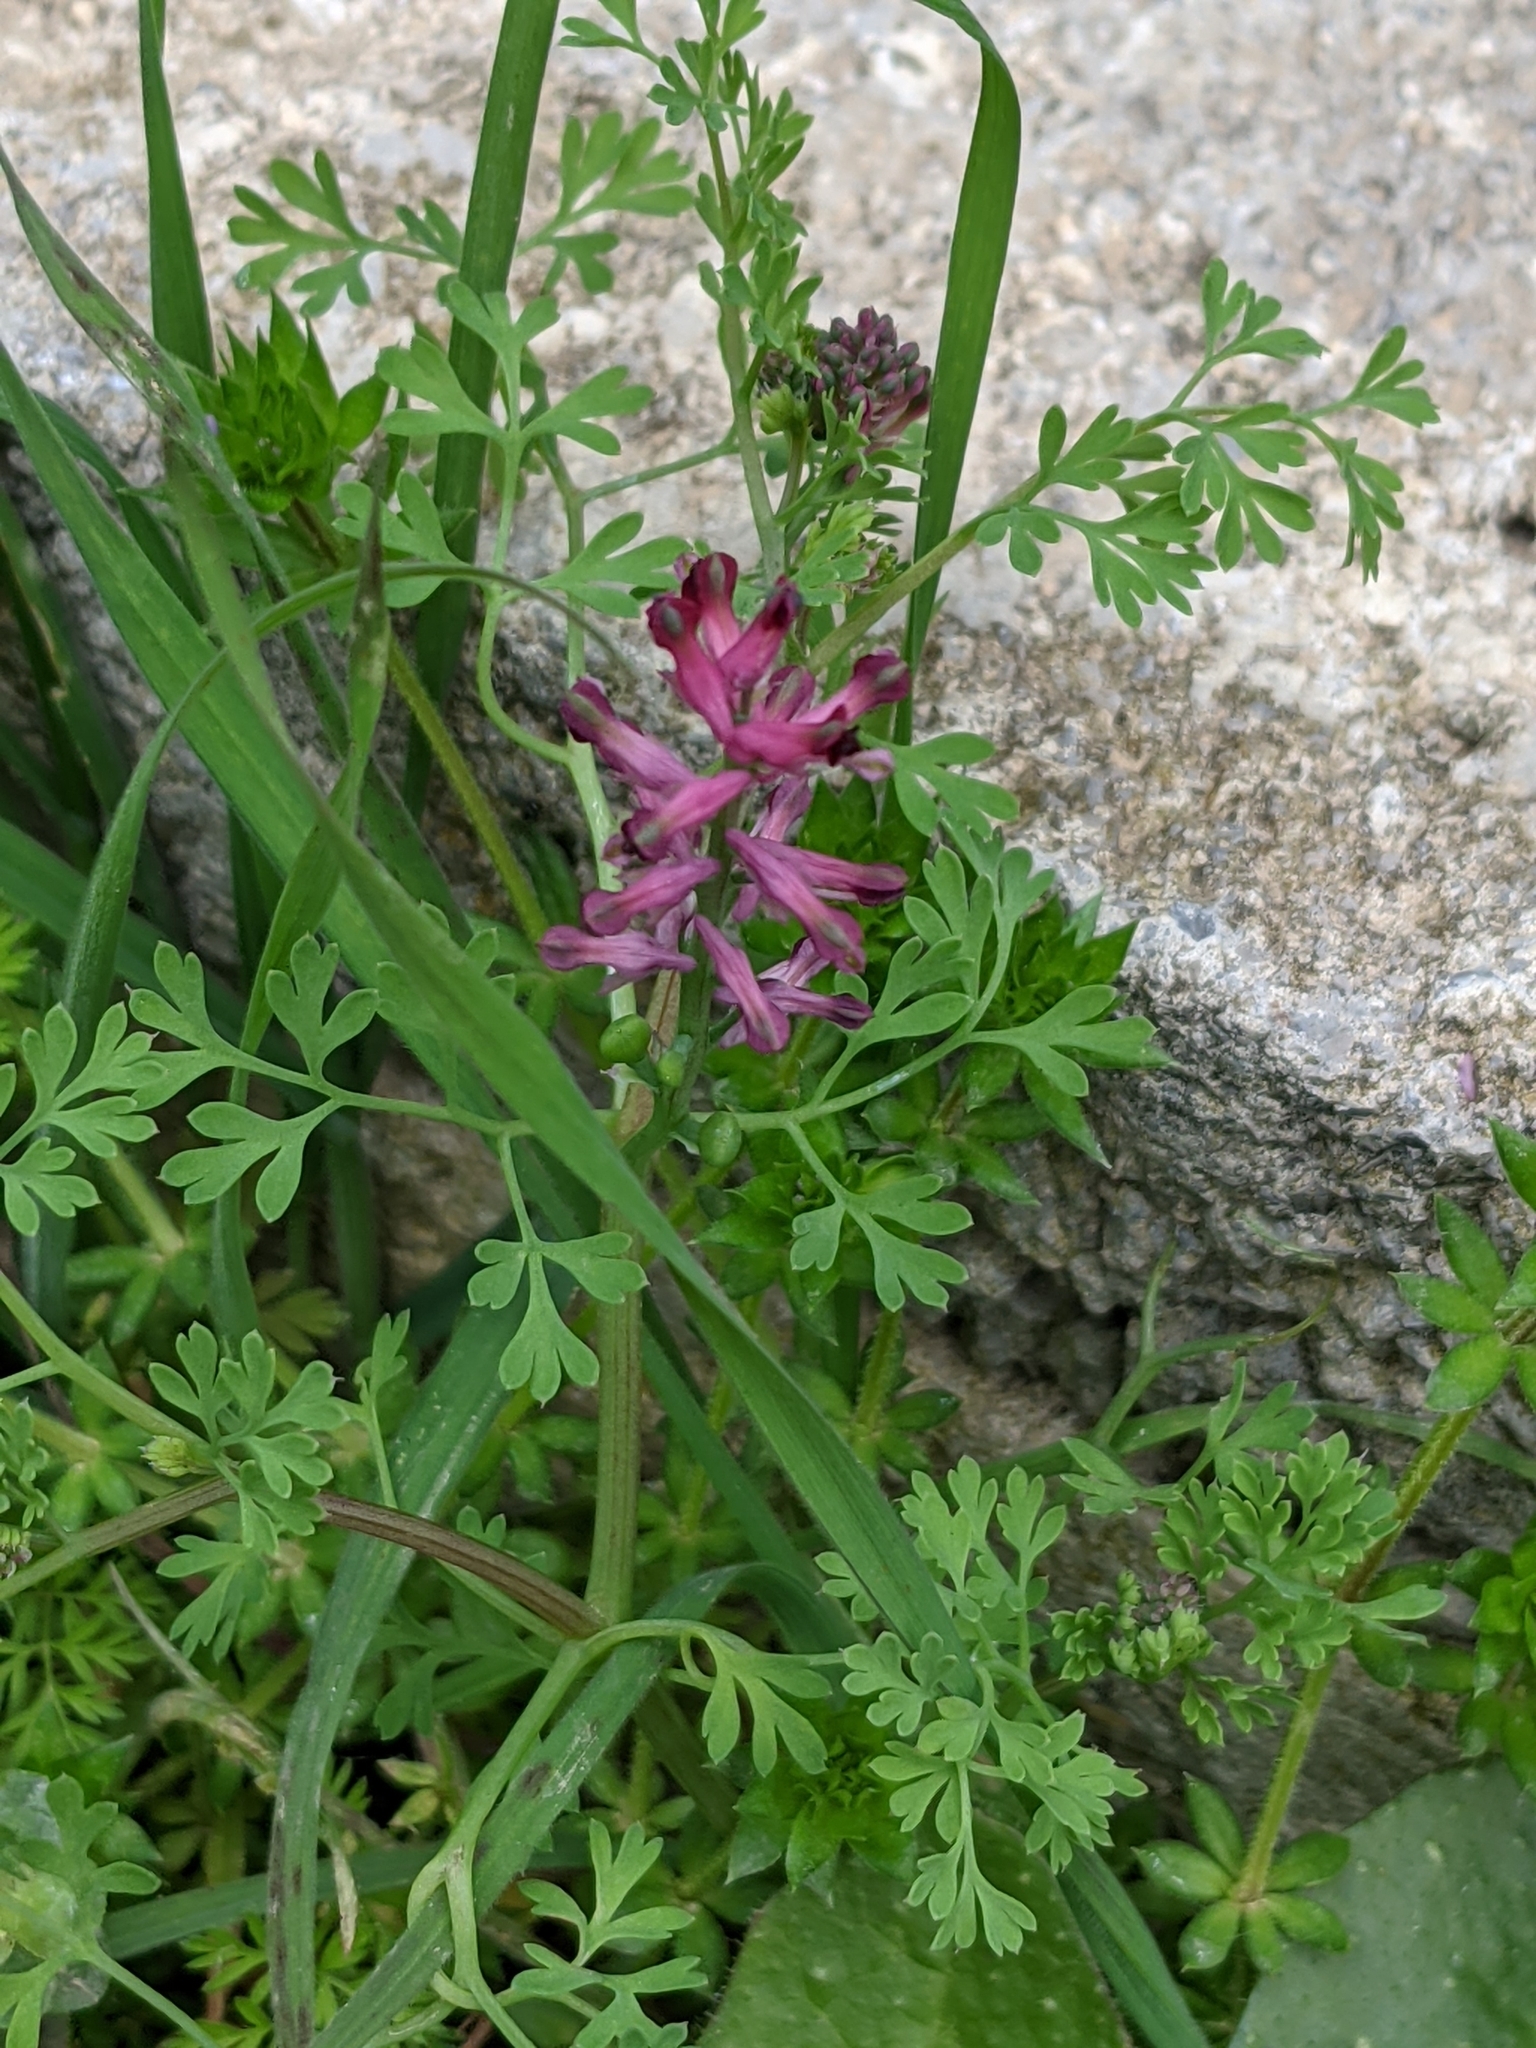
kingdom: Plantae
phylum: Tracheophyta
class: Magnoliopsida
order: Ranunculales
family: Papaveraceae
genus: Fumaria
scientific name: Fumaria officinalis
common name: Common fumitory
